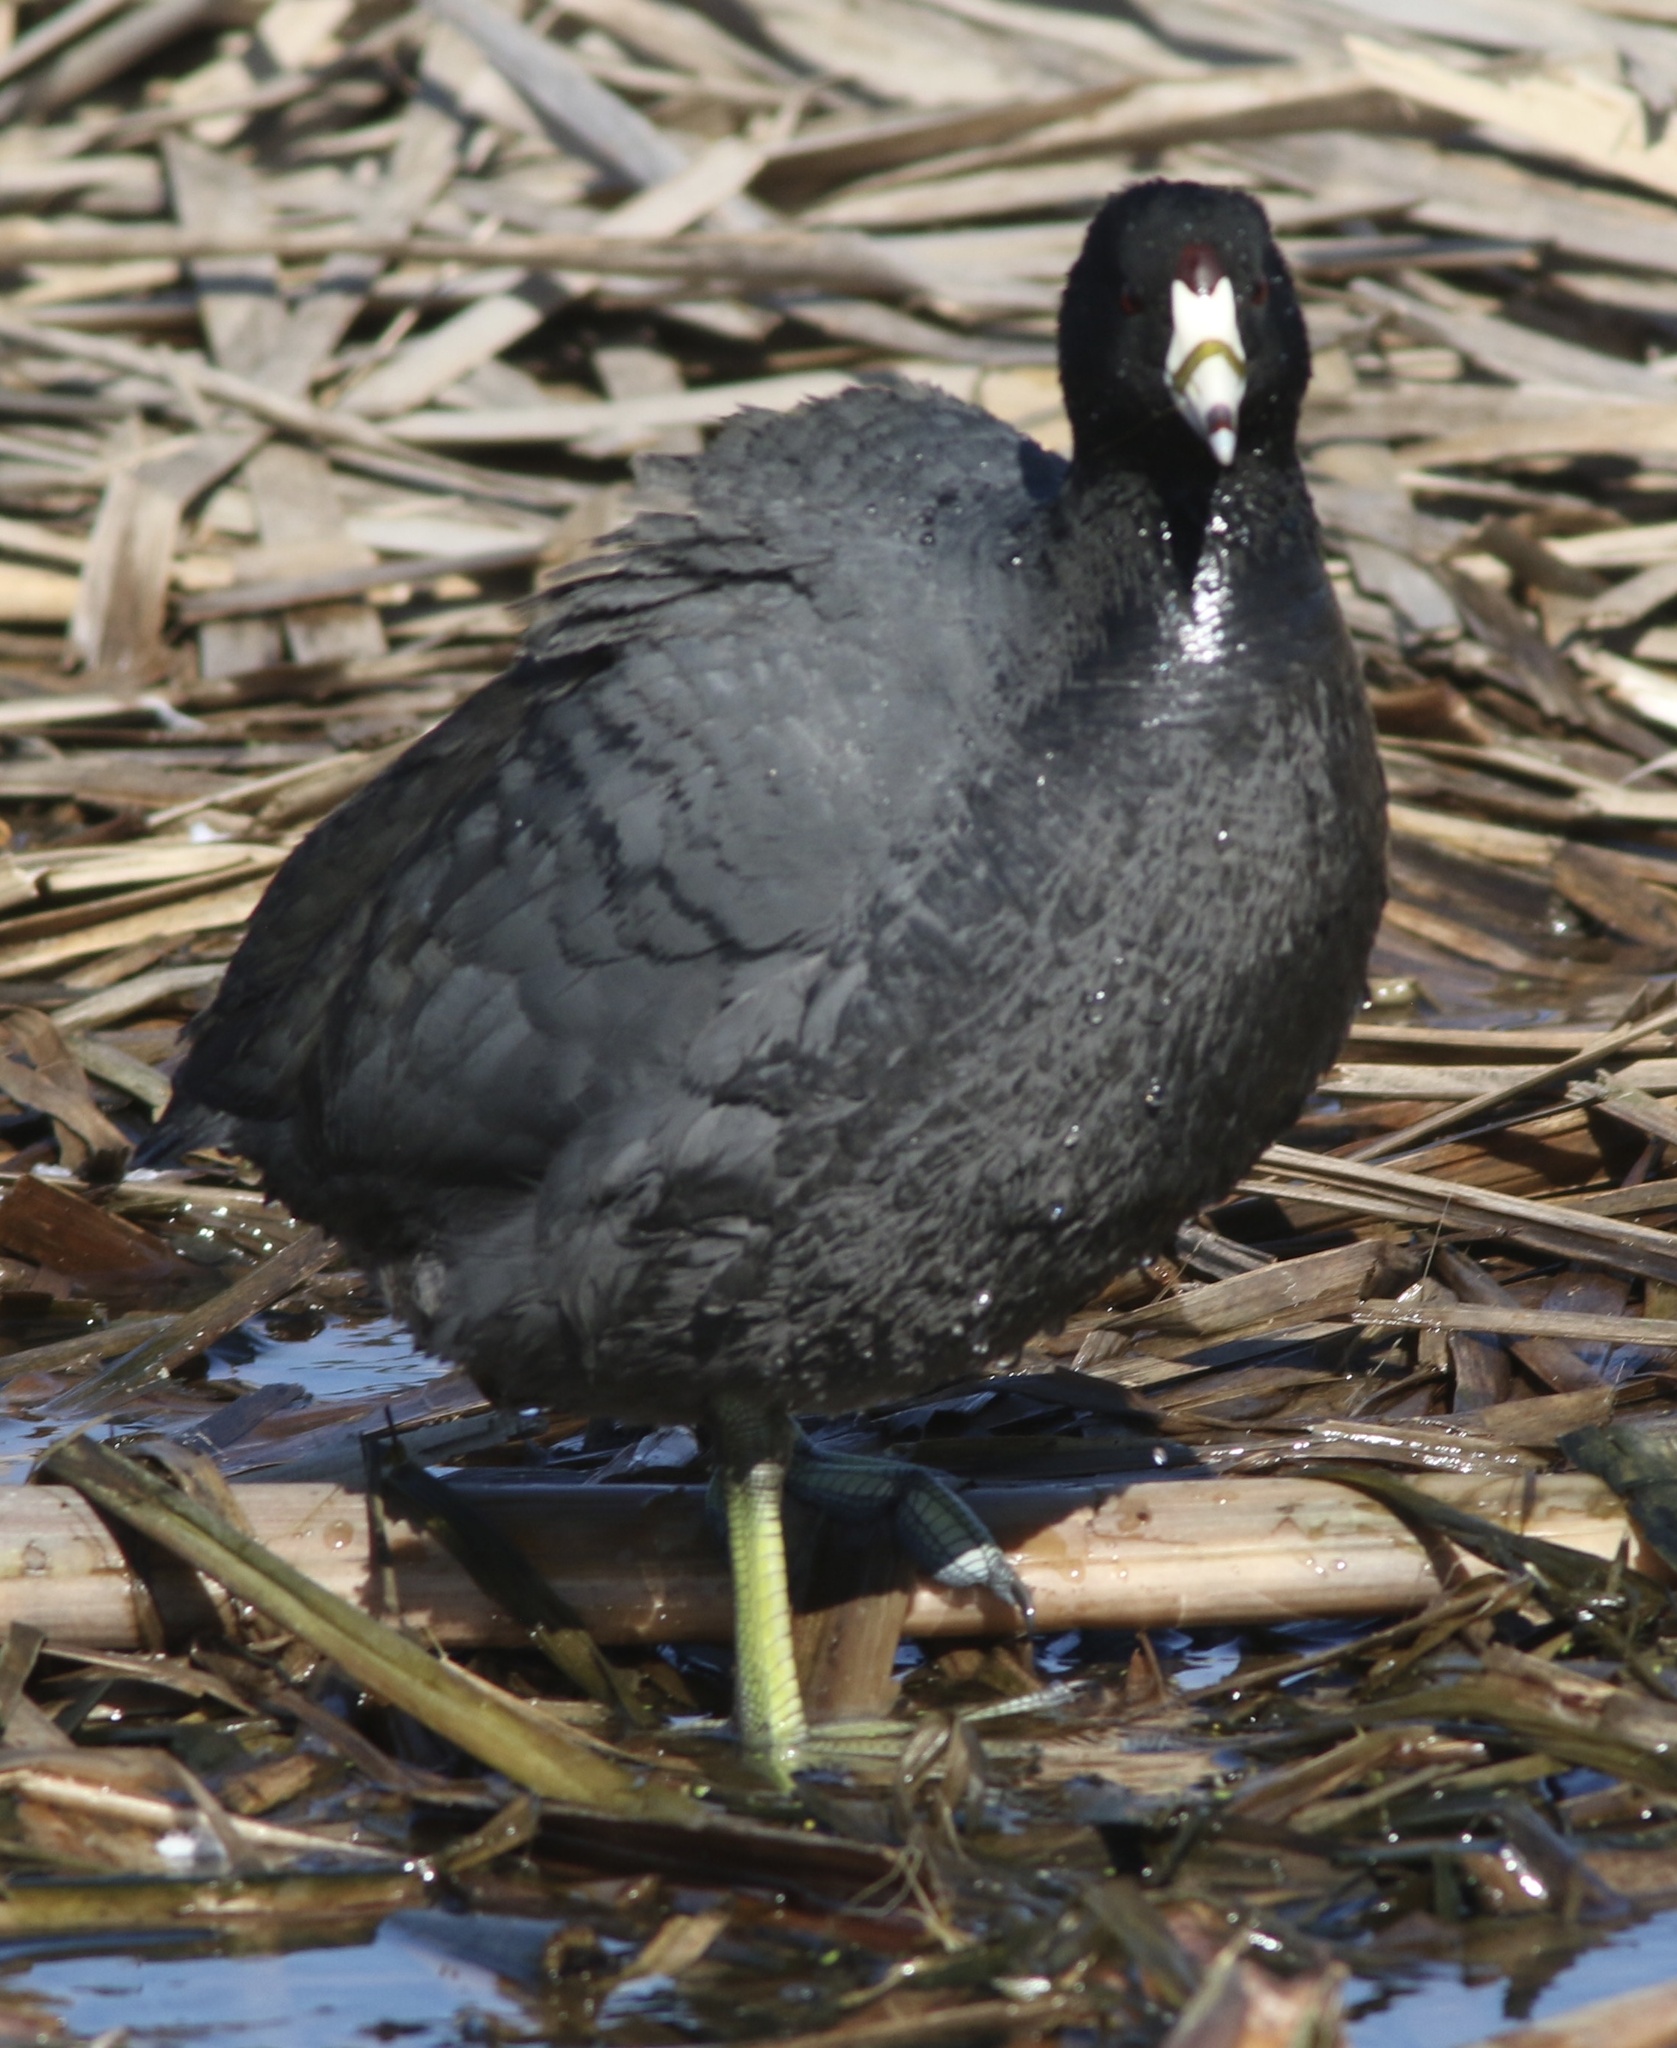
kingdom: Animalia
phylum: Chordata
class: Aves
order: Gruiformes
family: Rallidae
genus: Fulica
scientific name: Fulica americana
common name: American coot
